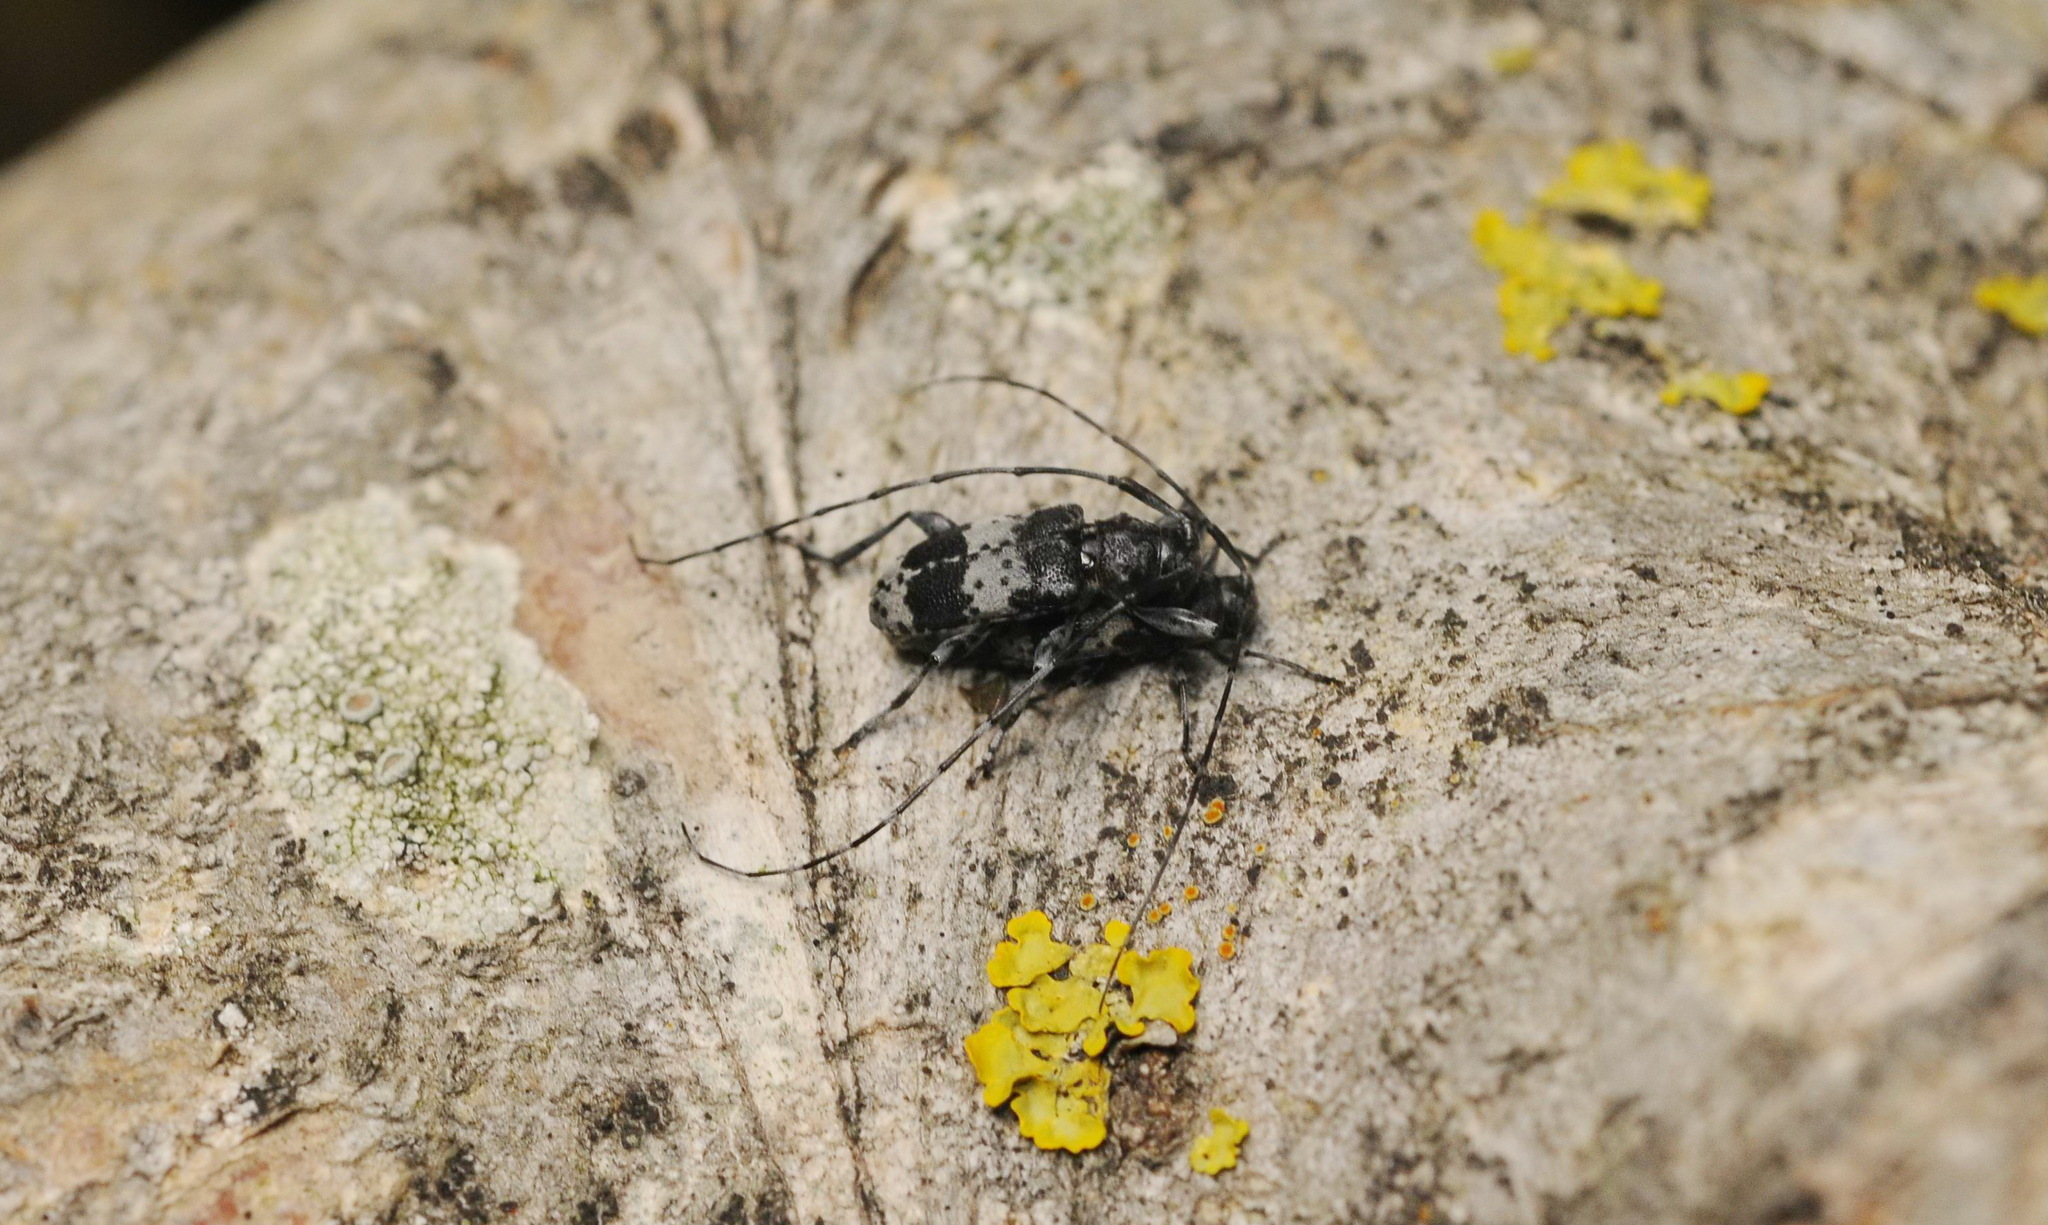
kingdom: Animalia
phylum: Arthropoda
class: Insecta
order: Coleoptera
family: Cerambycidae
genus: Leiopus
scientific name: Leiopus punctulatus
